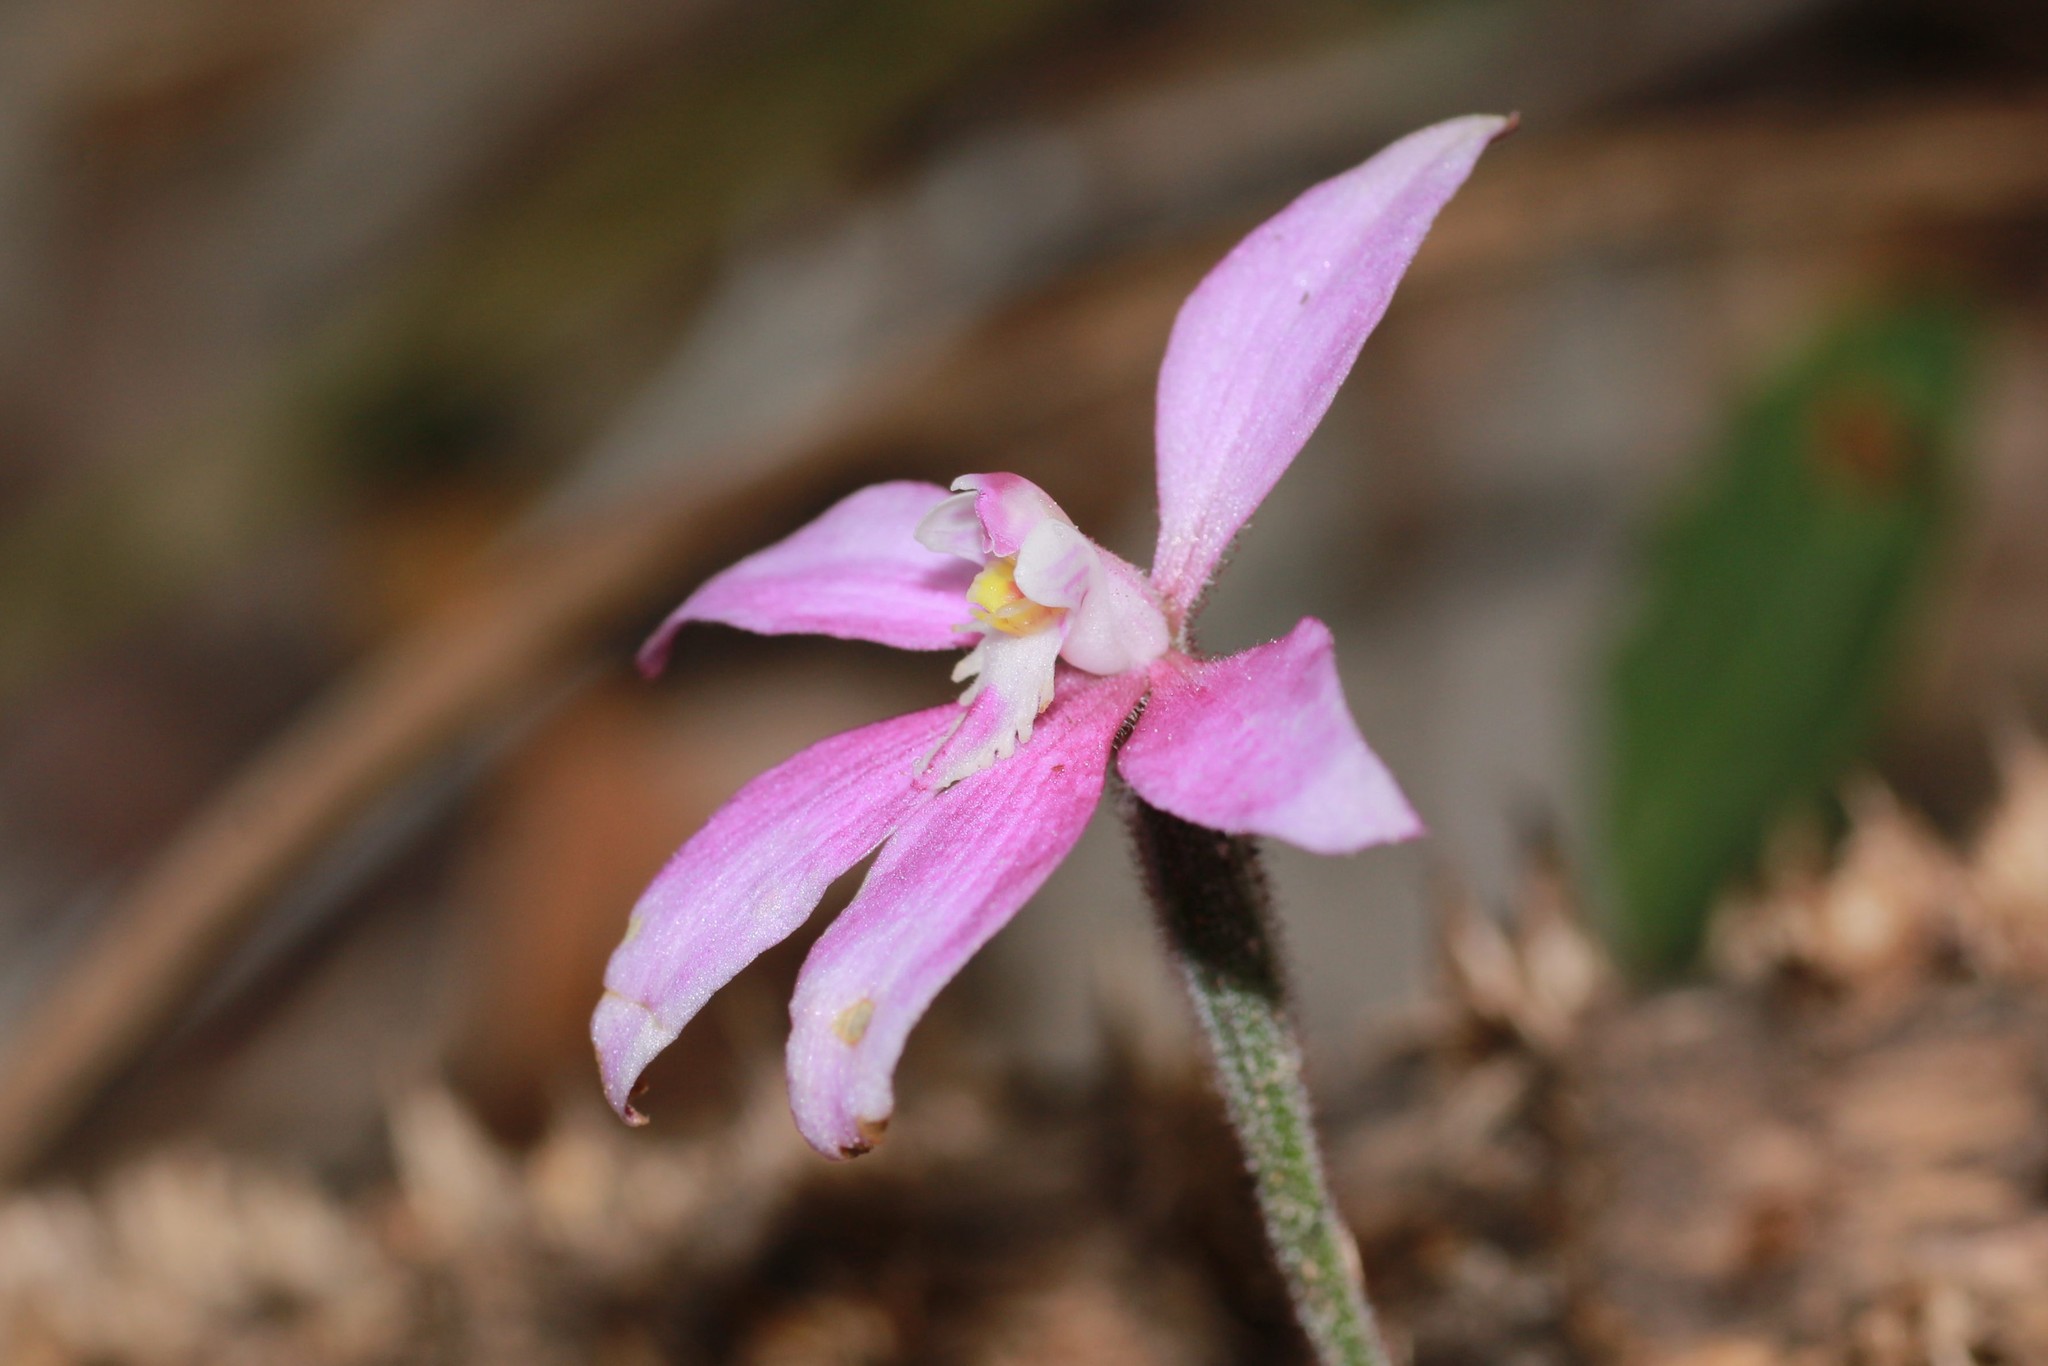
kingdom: Plantae
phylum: Tracheophyta
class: Liliopsida
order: Asparagales
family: Orchidaceae
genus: Caladenia
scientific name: Caladenia reptans
